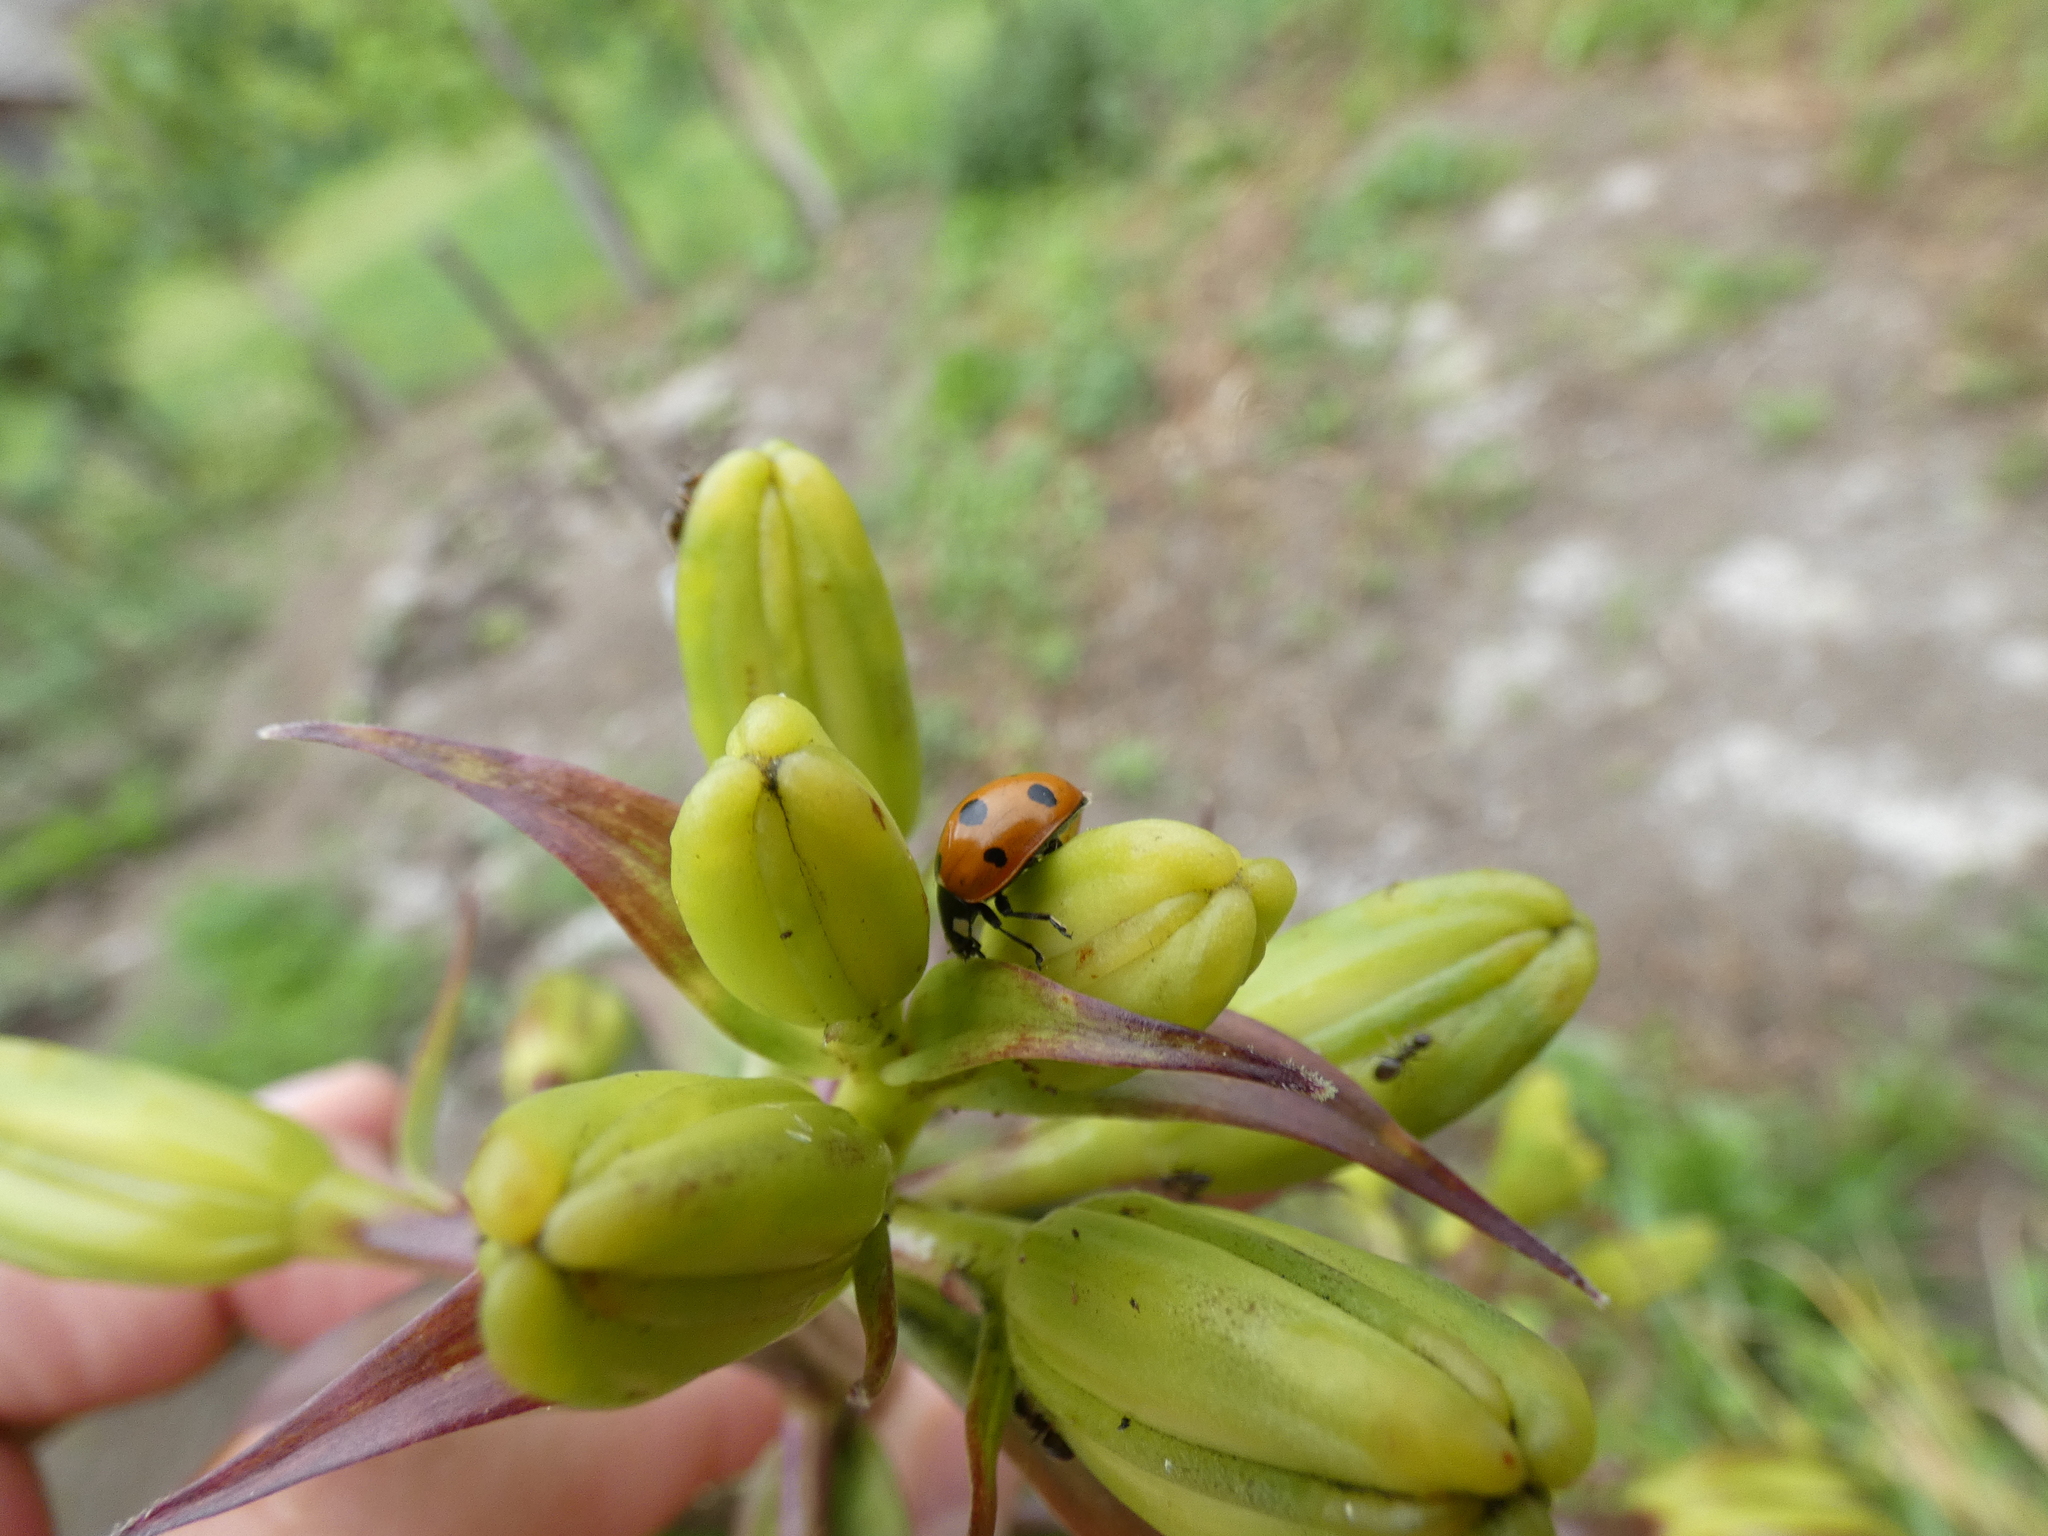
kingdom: Animalia
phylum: Arthropoda
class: Insecta
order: Coleoptera
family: Coccinellidae
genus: Coccinella
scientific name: Coccinella septempunctata
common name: Sevenspotted lady beetle
